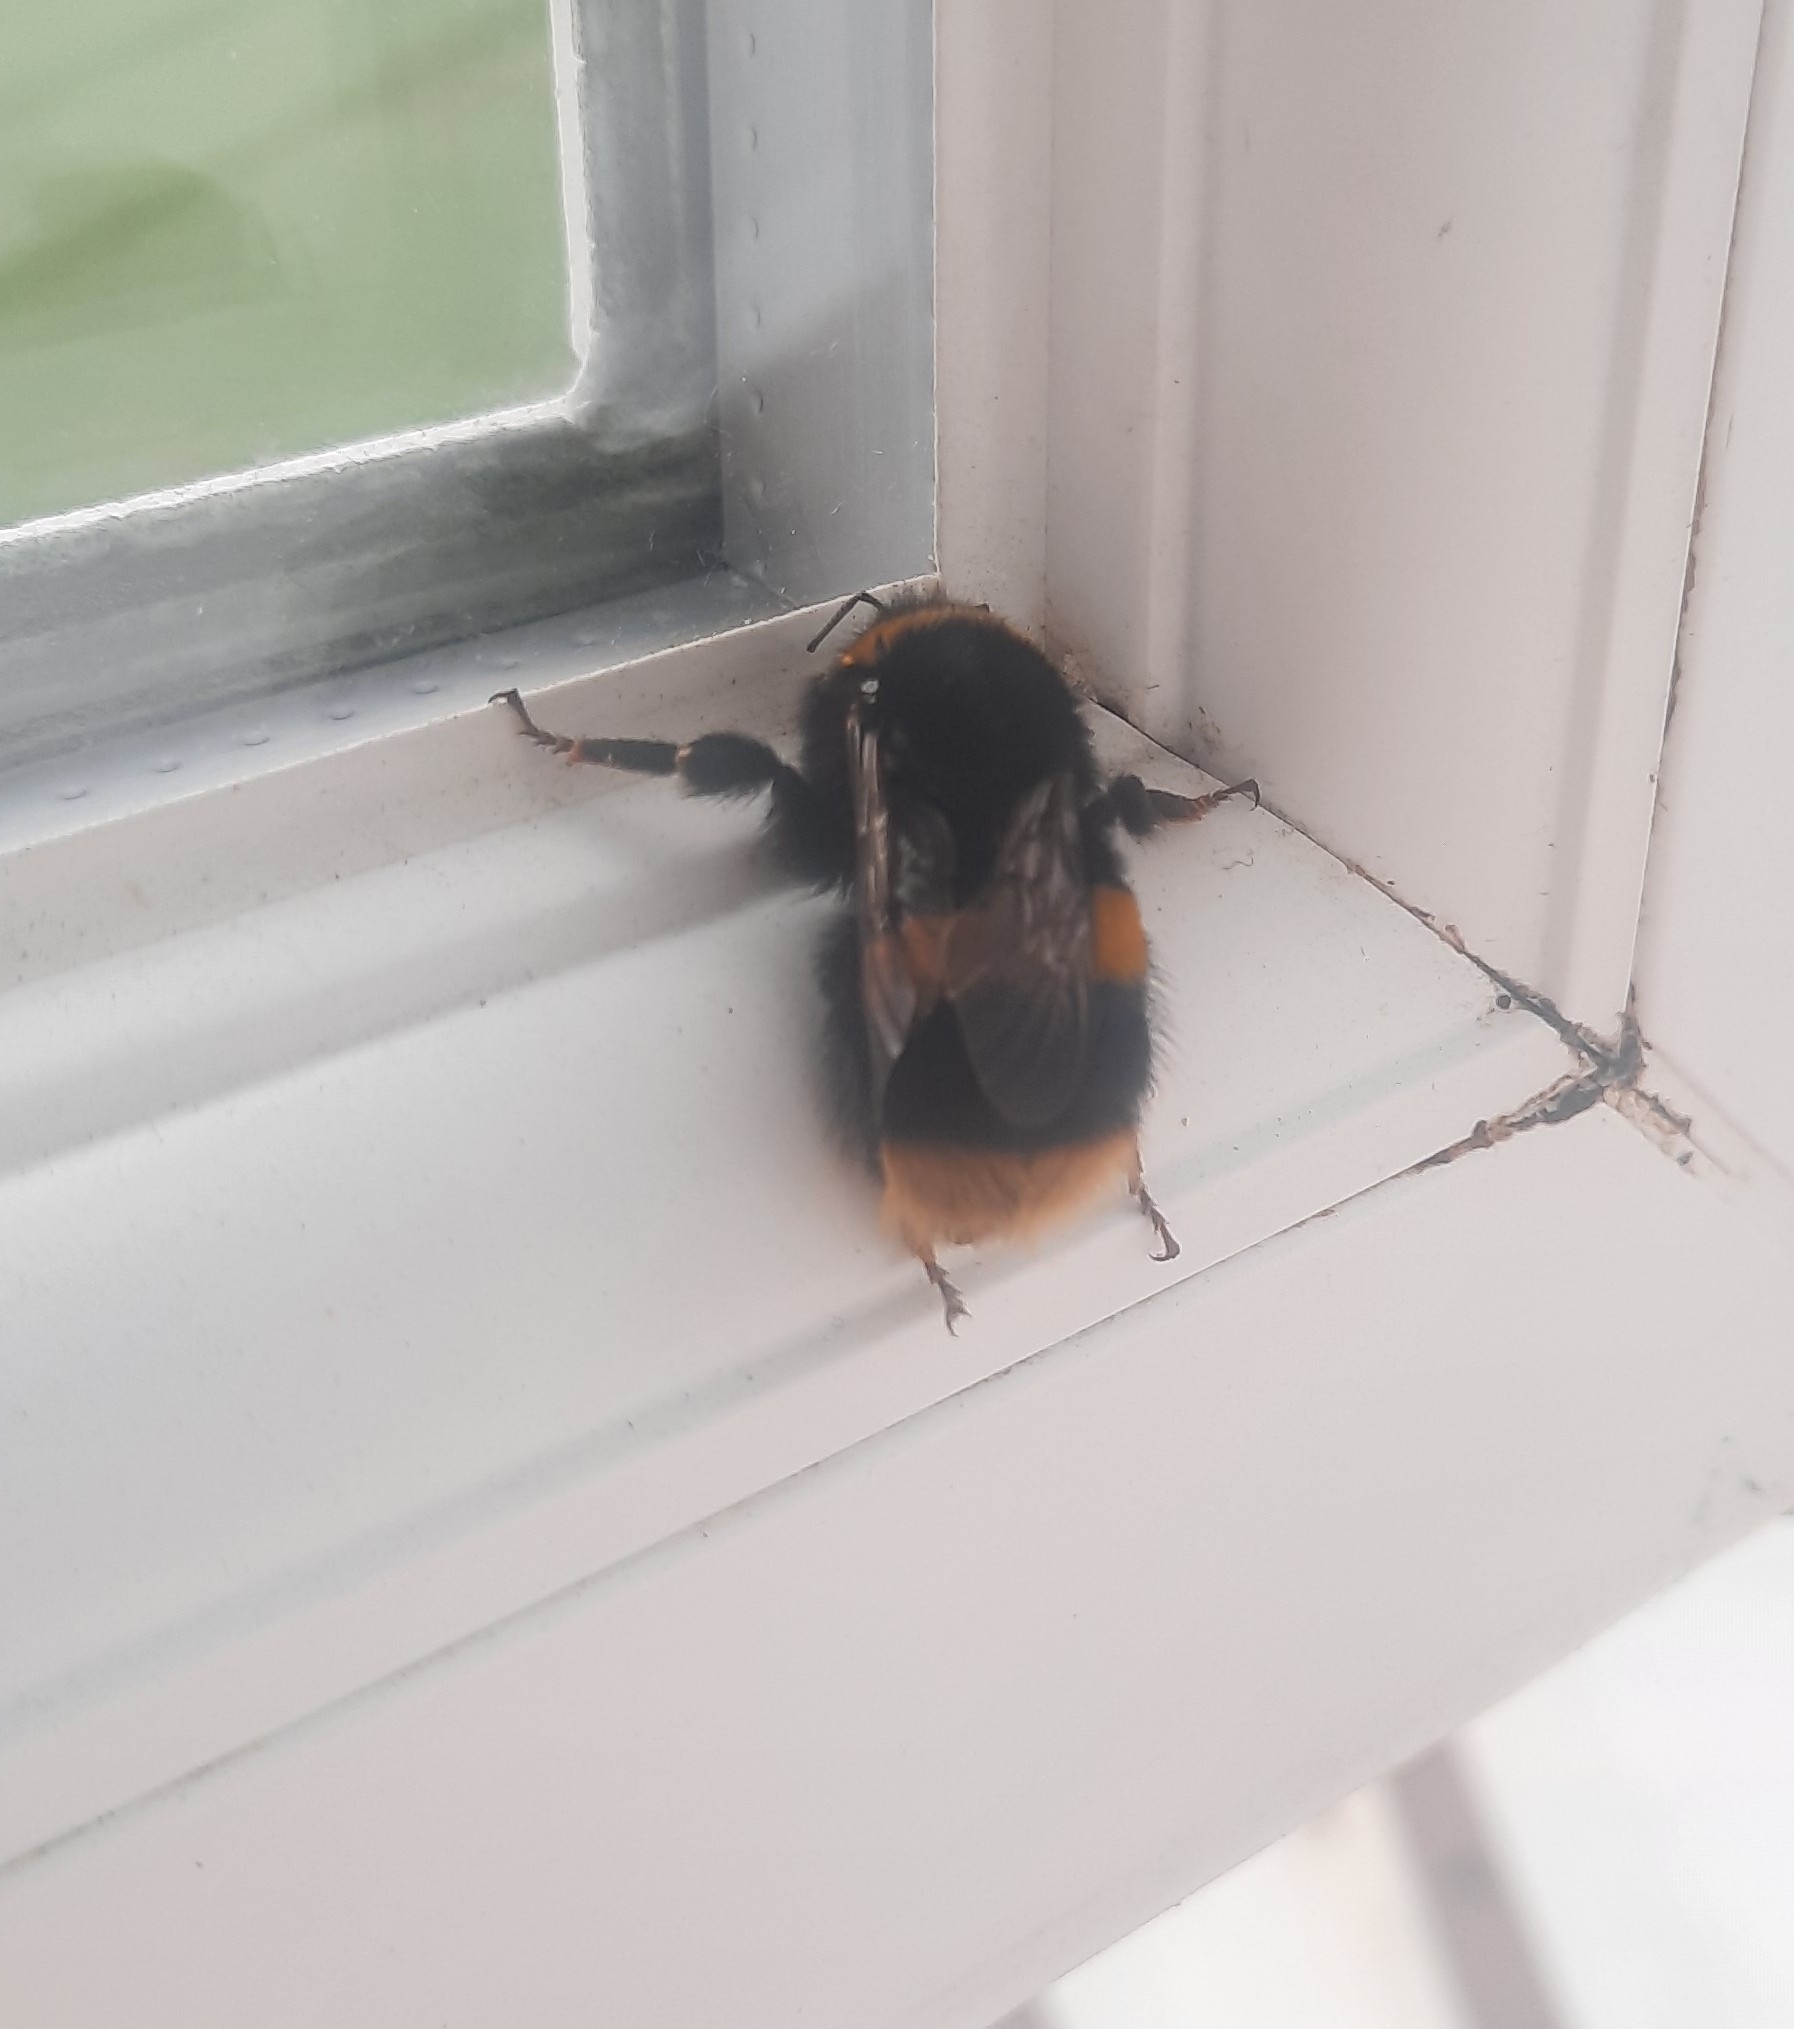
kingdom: Animalia
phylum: Arthropoda
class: Insecta
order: Hymenoptera
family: Apidae
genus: Bombus
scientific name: Bombus terrestris
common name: Buff-tailed bumblebee
